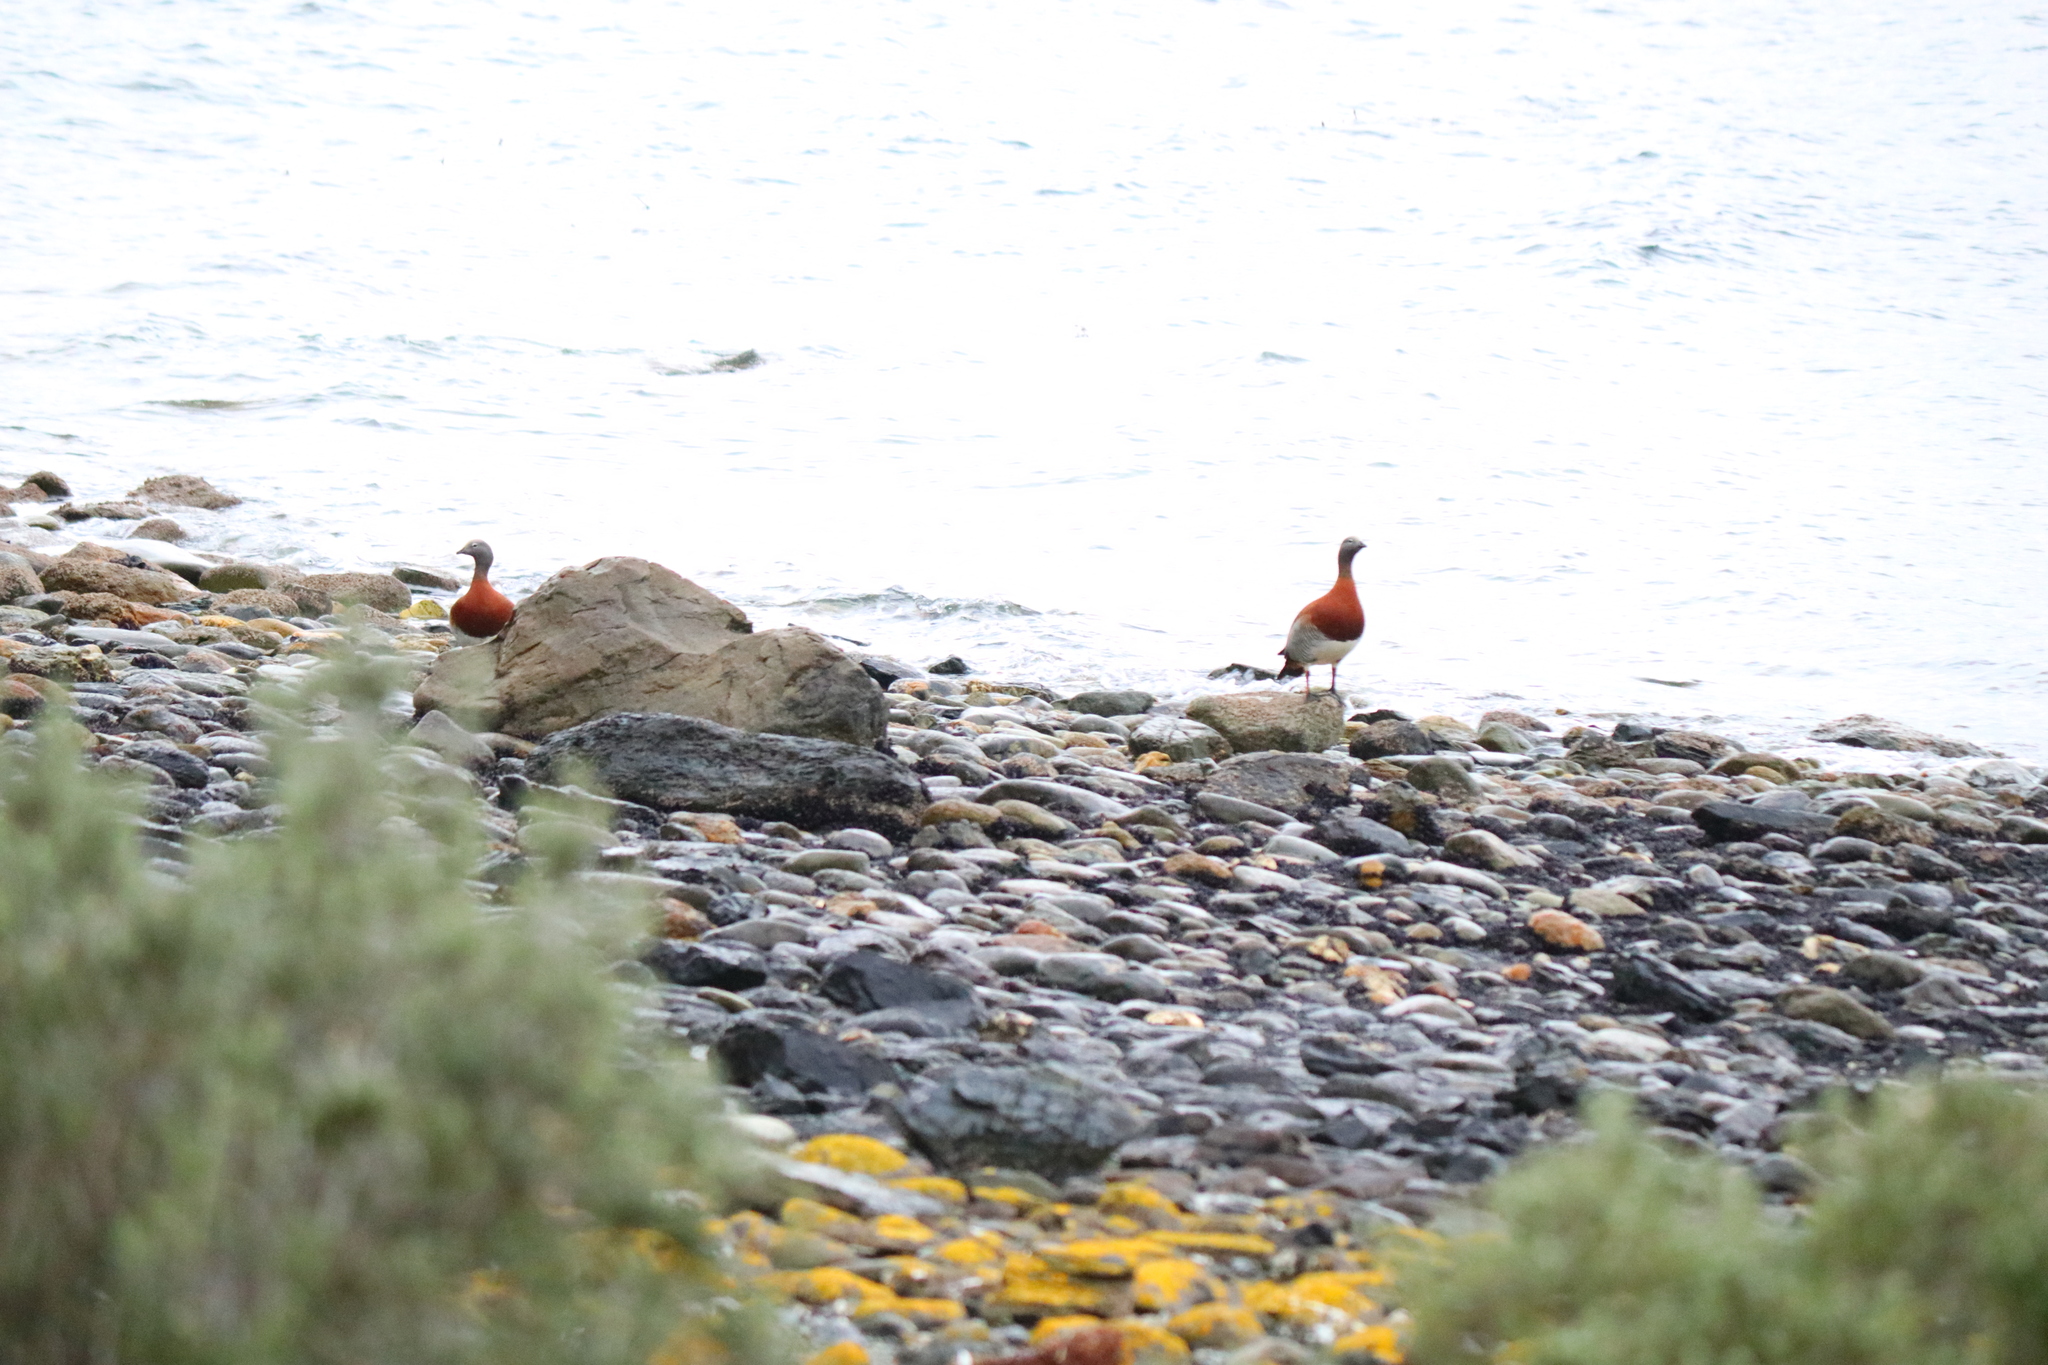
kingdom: Animalia
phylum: Chordata
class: Aves
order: Anseriformes
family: Anatidae
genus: Chloephaga
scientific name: Chloephaga poliocephala
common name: Ashy-headed goose
